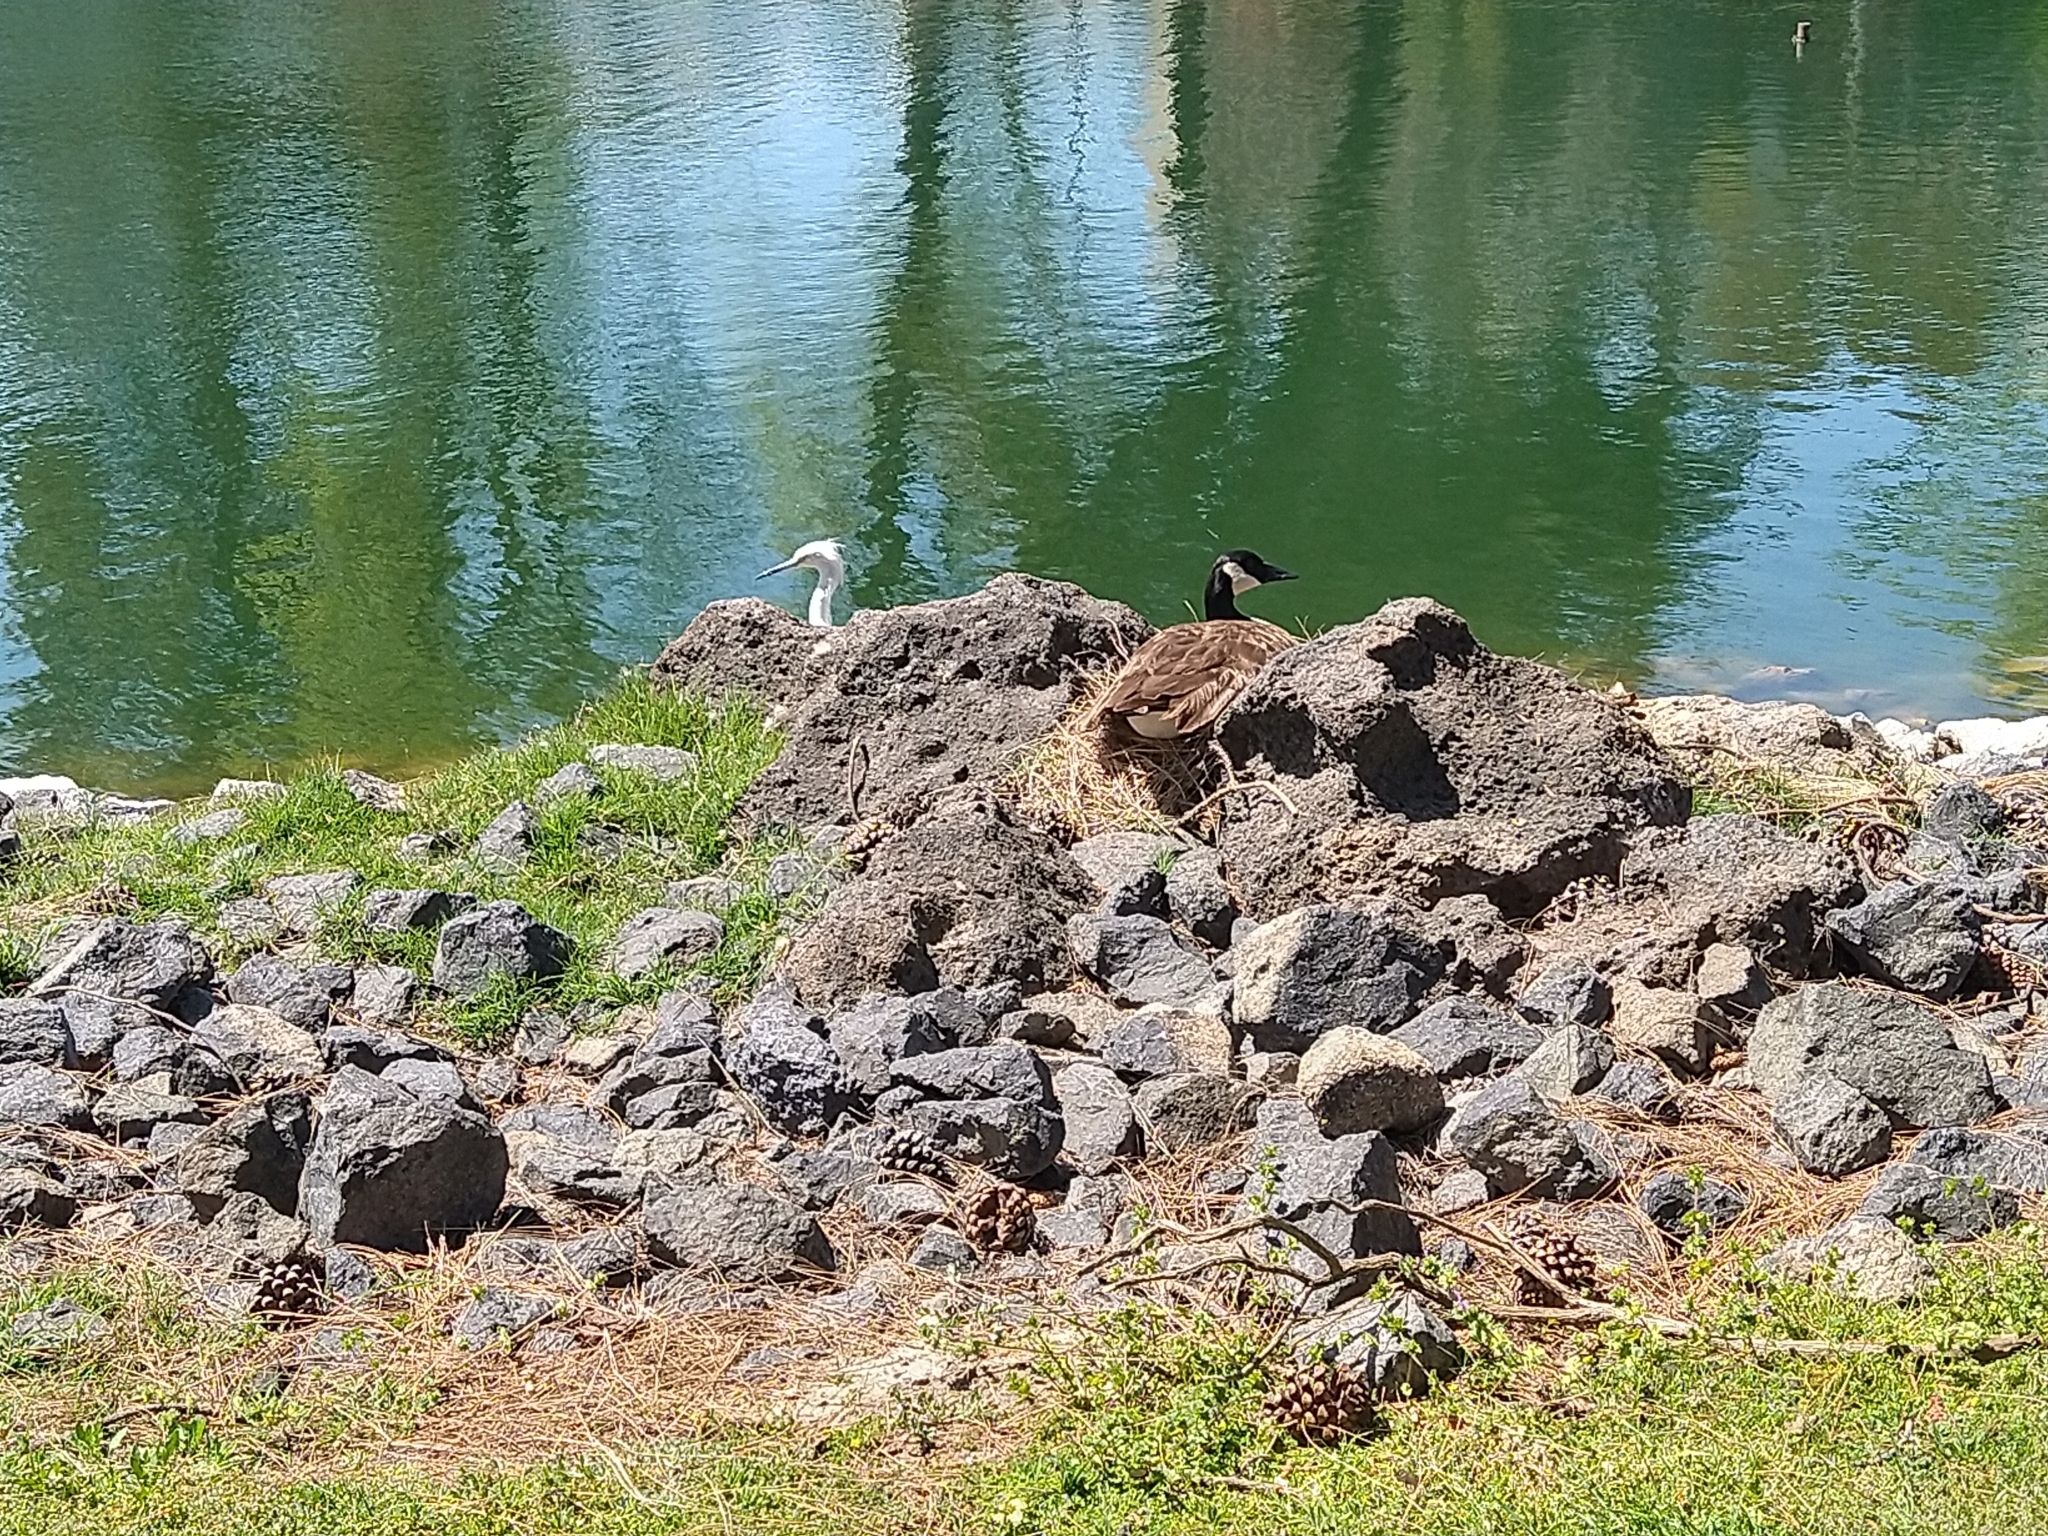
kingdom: Animalia
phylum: Chordata
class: Aves
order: Anseriformes
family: Anatidae
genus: Branta
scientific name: Branta canadensis
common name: Canada goose
